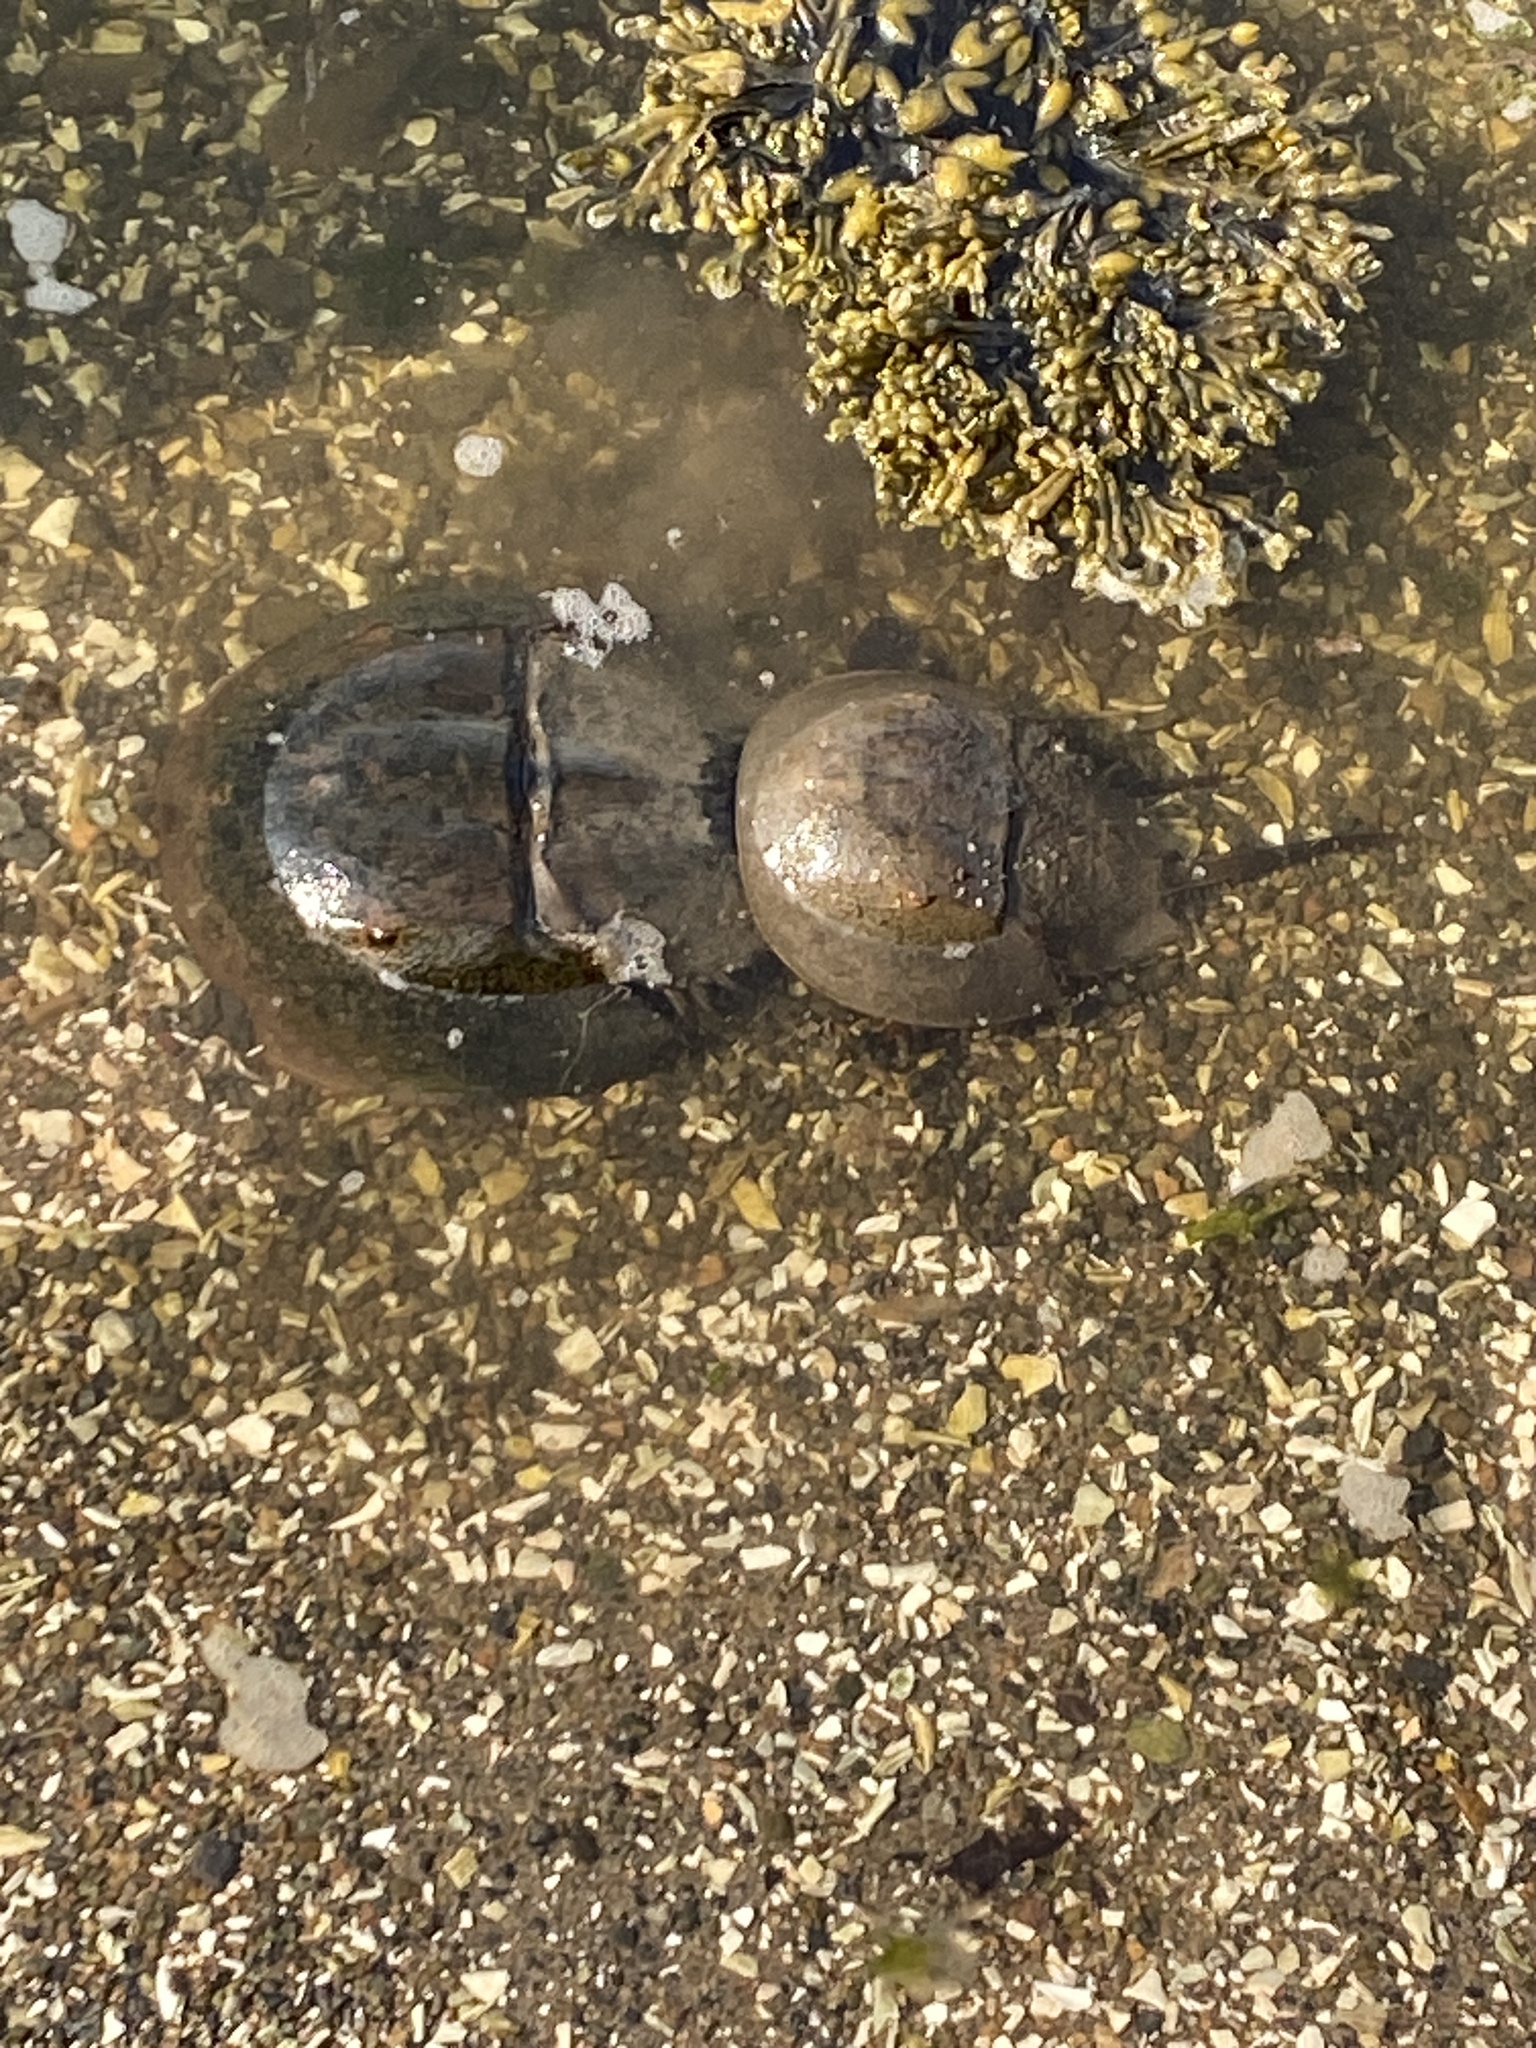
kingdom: Animalia
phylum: Arthropoda
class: Merostomata
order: Xiphosurida
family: Limulidae
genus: Limulus
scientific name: Limulus polyphemus
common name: Horseshoe crab
